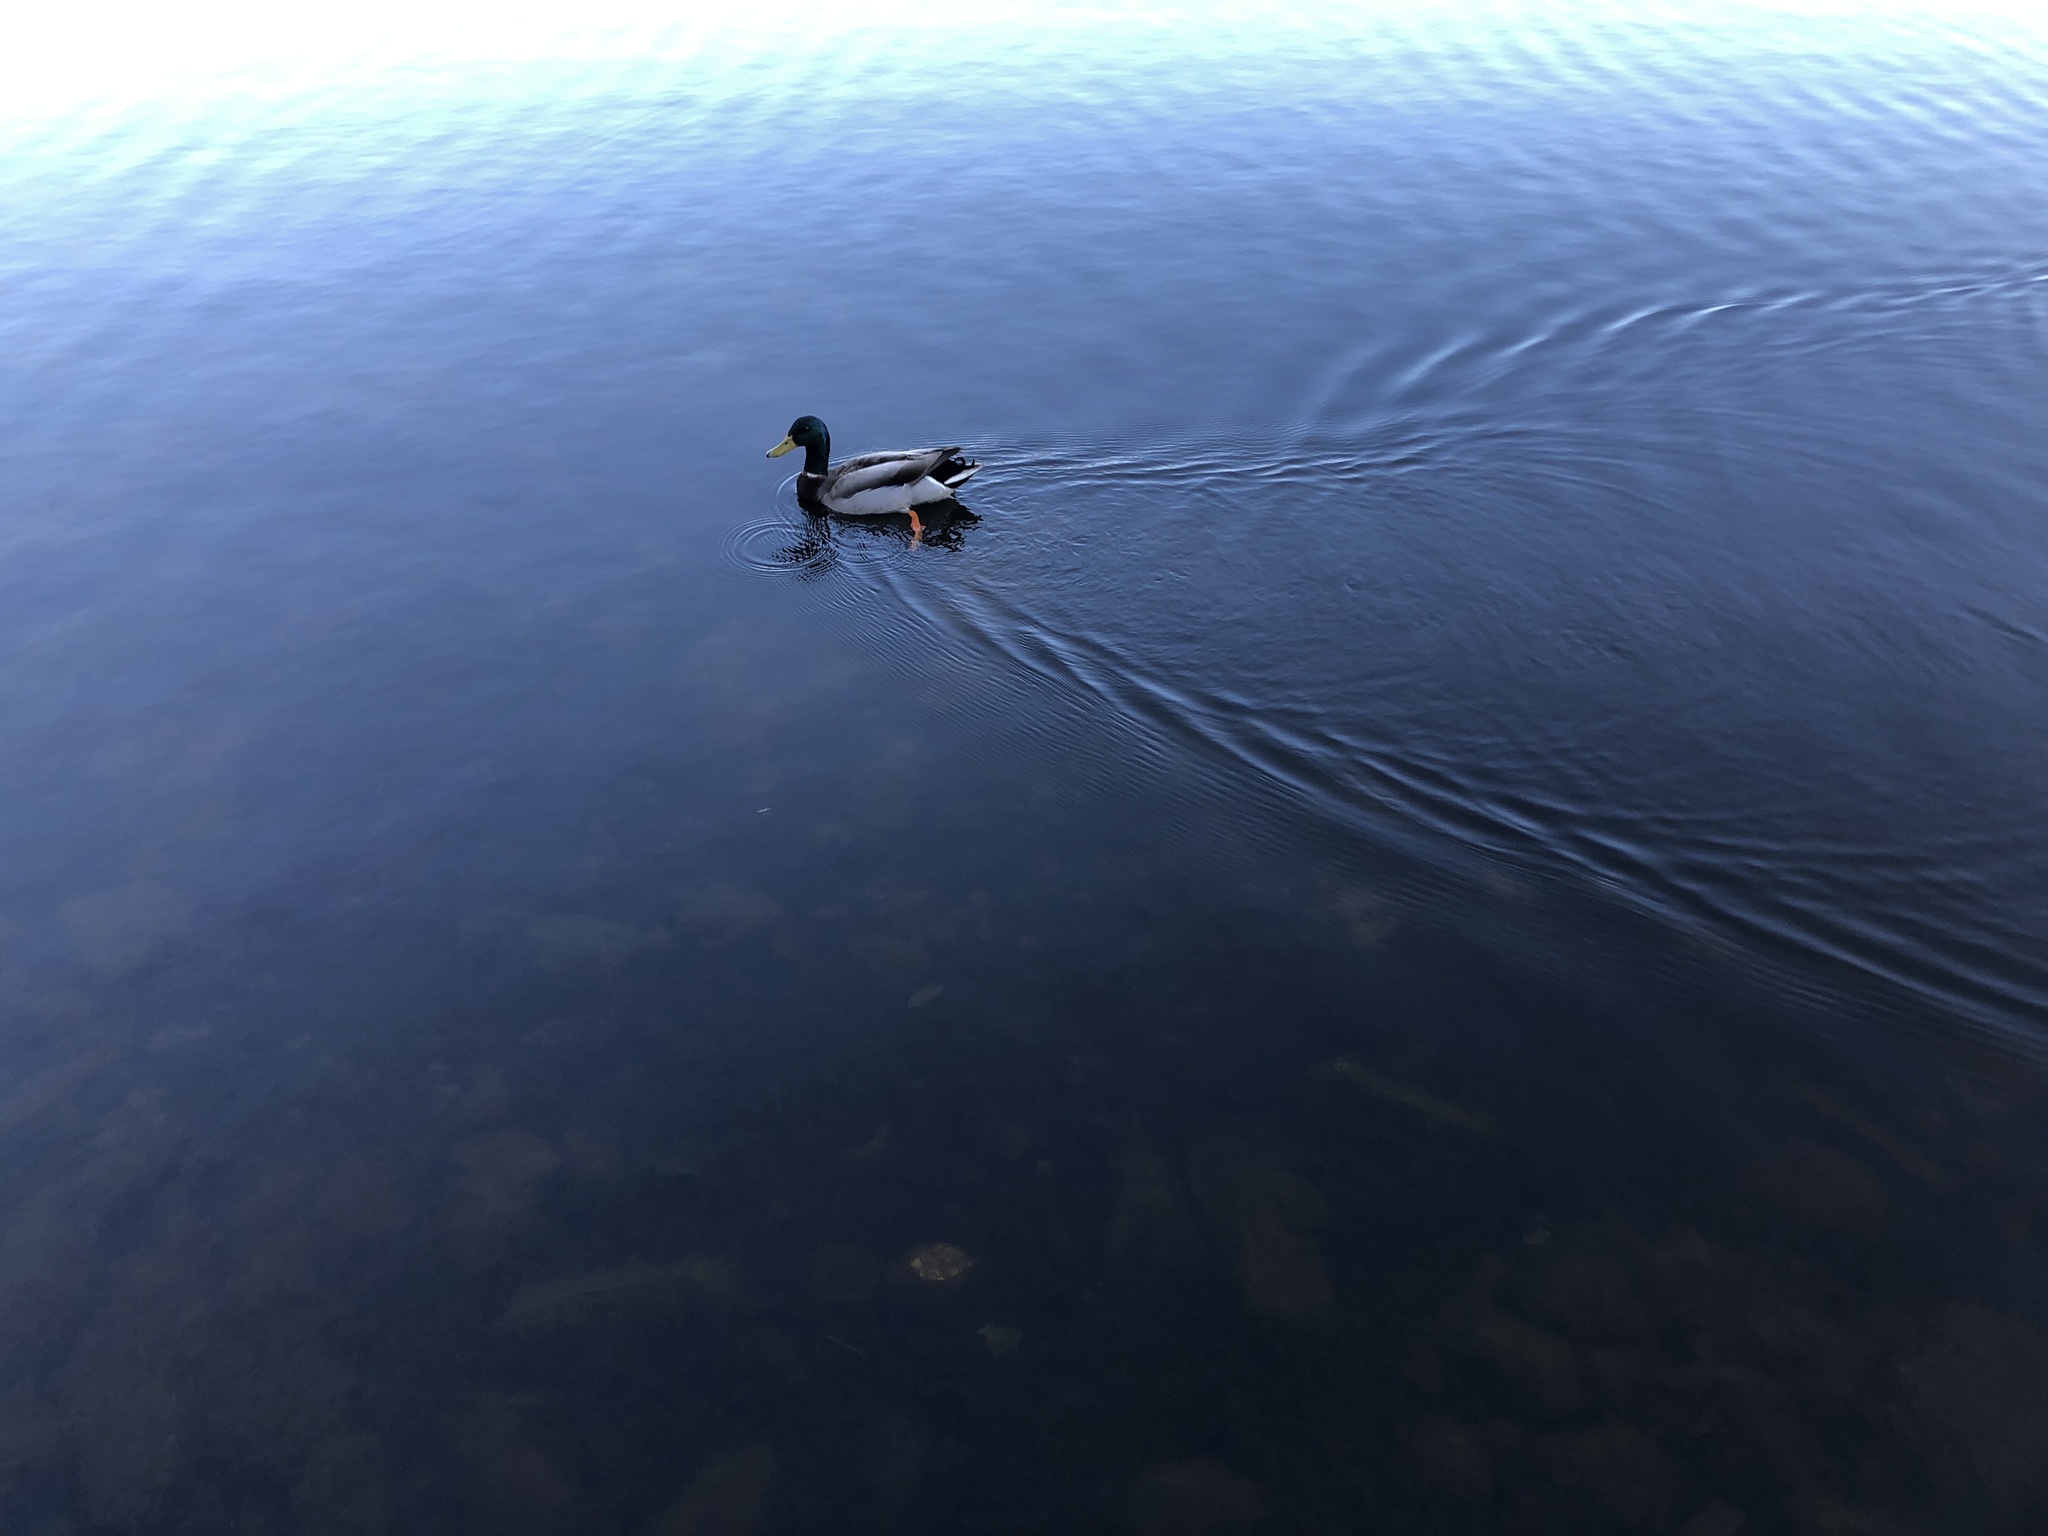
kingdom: Animalia
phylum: Chordata
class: Aves
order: Anseriformes
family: Anatidae
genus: Anas
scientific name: Anas platyrhynchos
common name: Mallard
